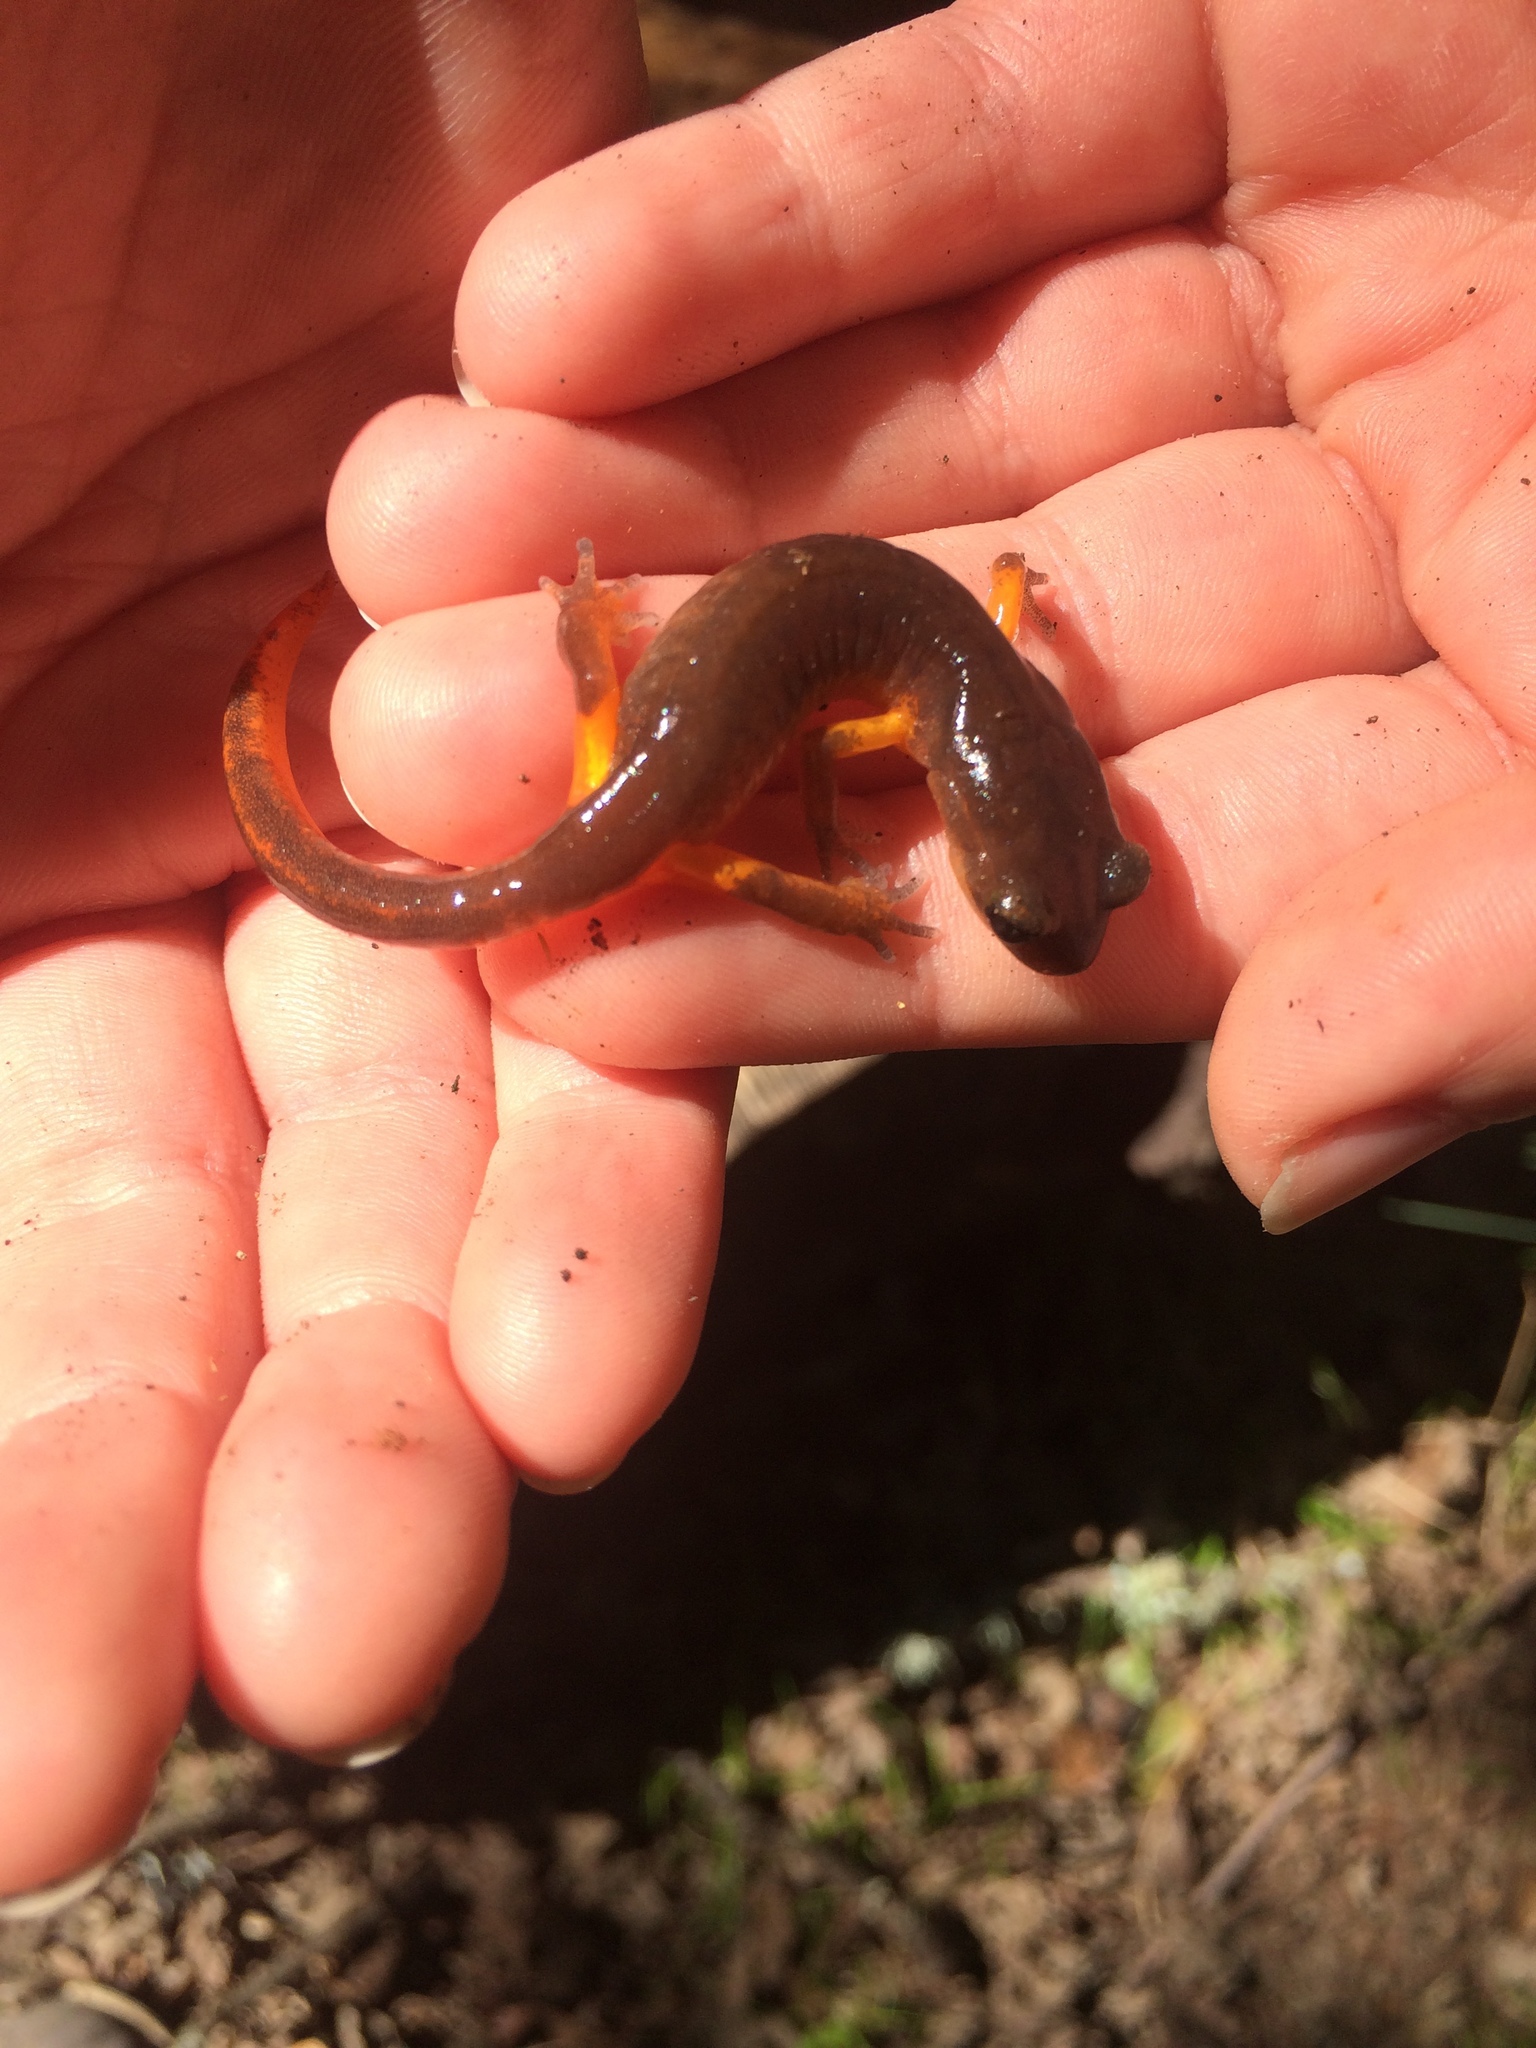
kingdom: Animalia
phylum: Chordata
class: Amphibia
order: Caudata
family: Plethodontidae
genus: Ensatina
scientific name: Ensatina eschscholtzii
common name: Ensatina
